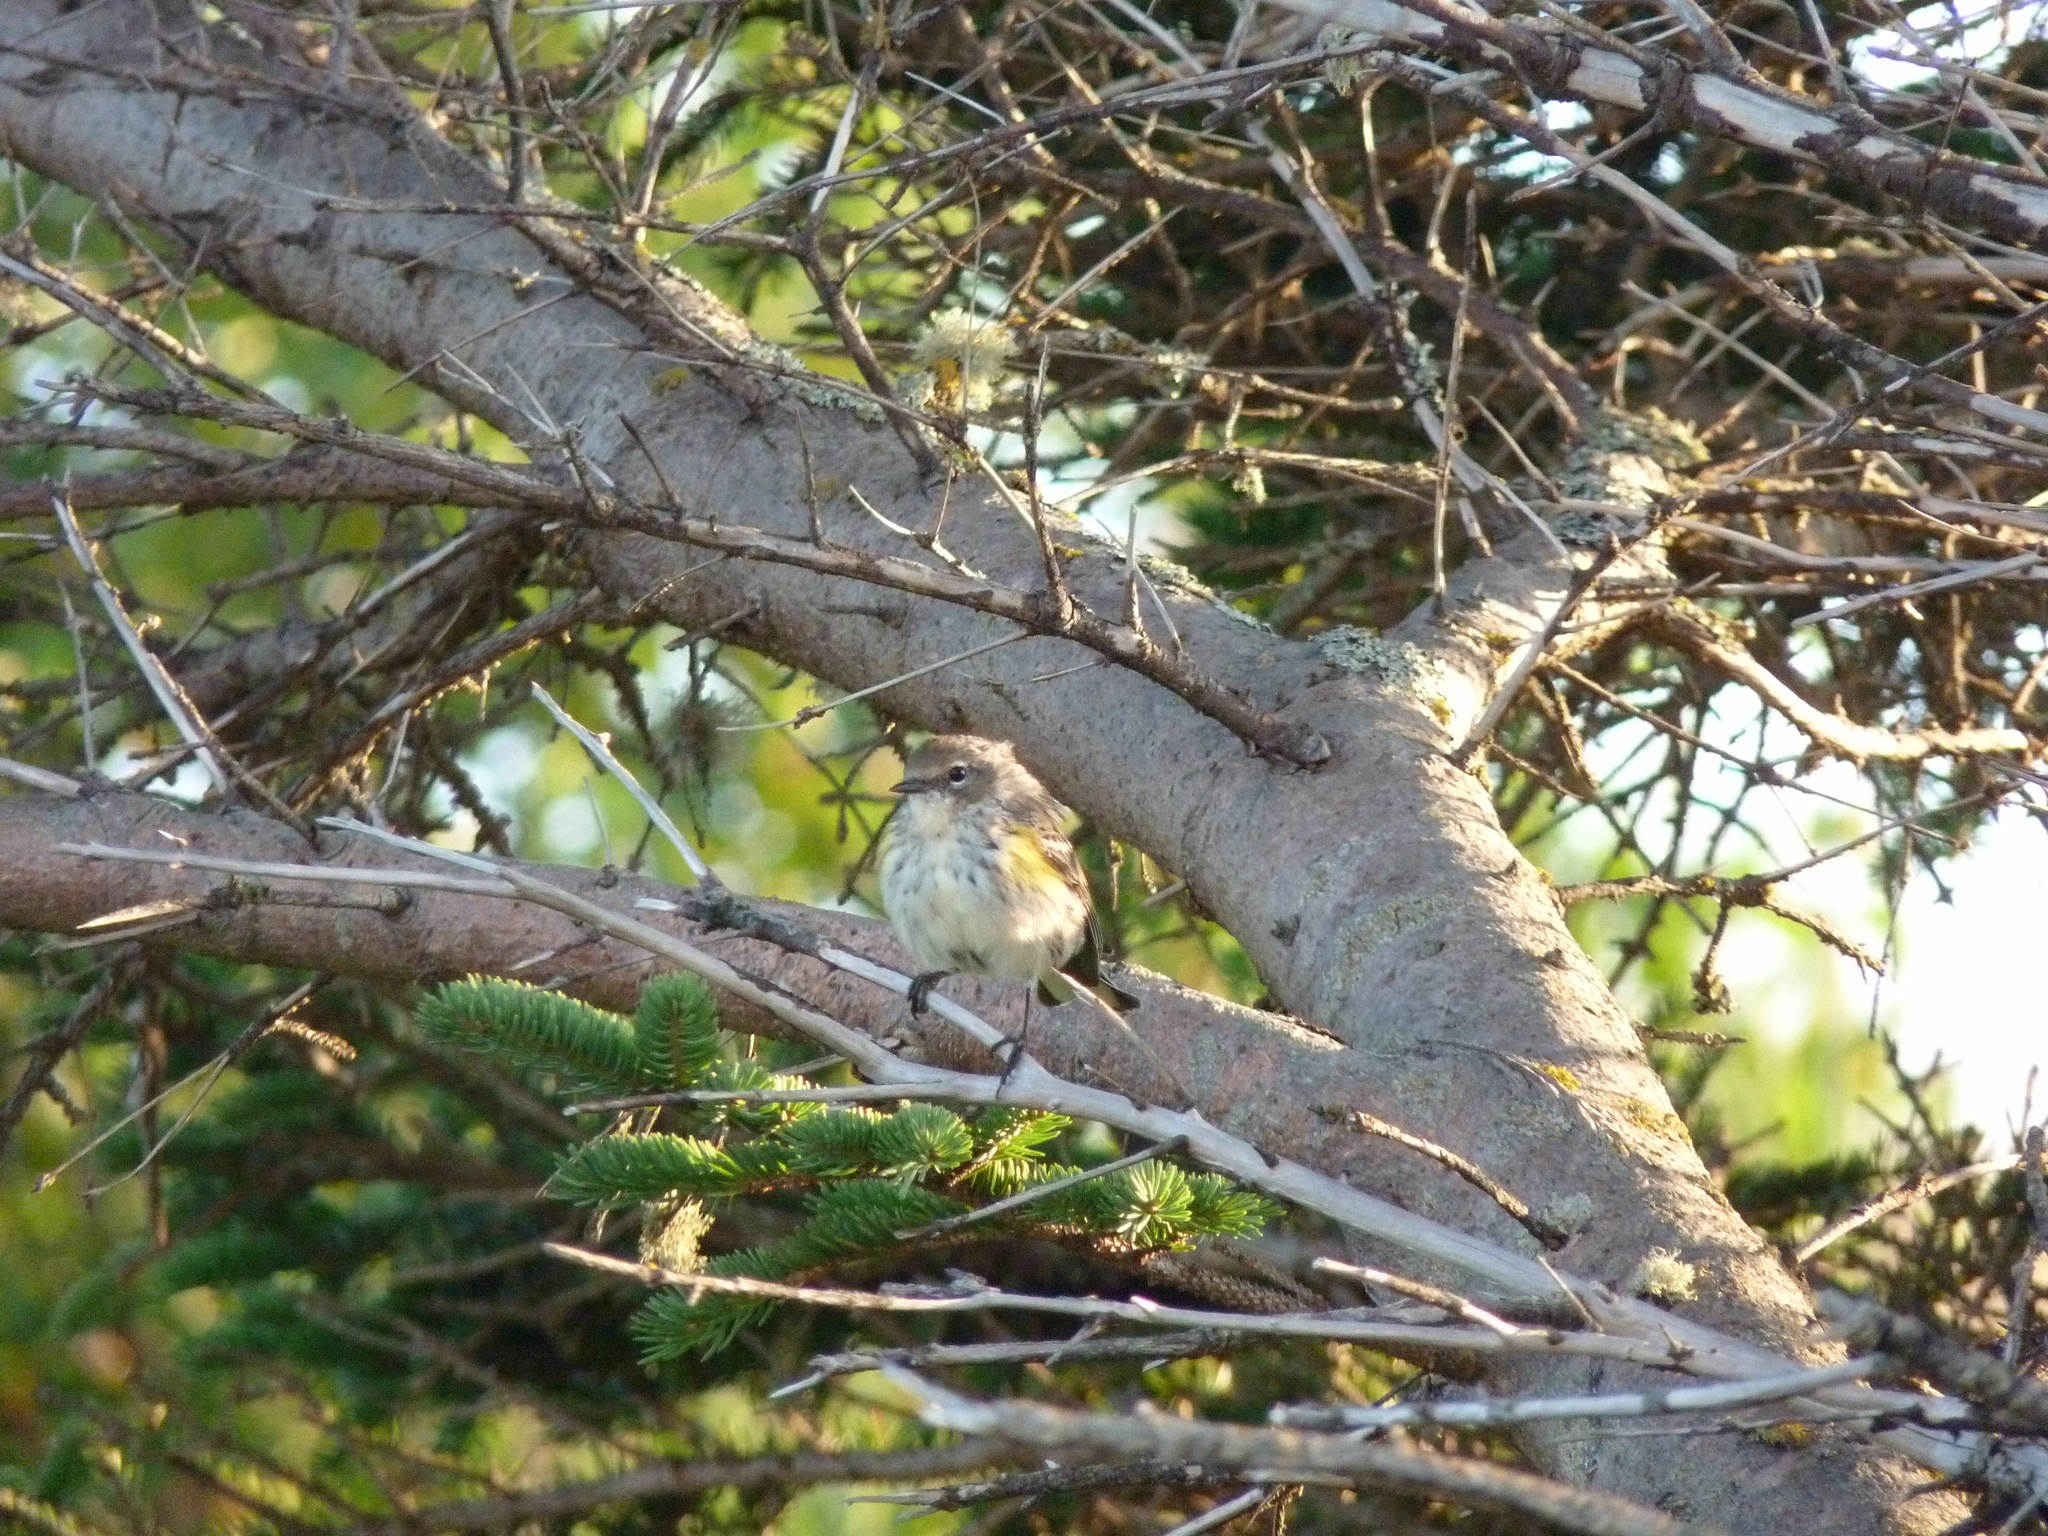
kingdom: Animalia
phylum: Chordata
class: Aves
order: Passeriformes
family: Parulidae
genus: Setophaga
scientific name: Setophaga coronata
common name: Myrtle warbler
